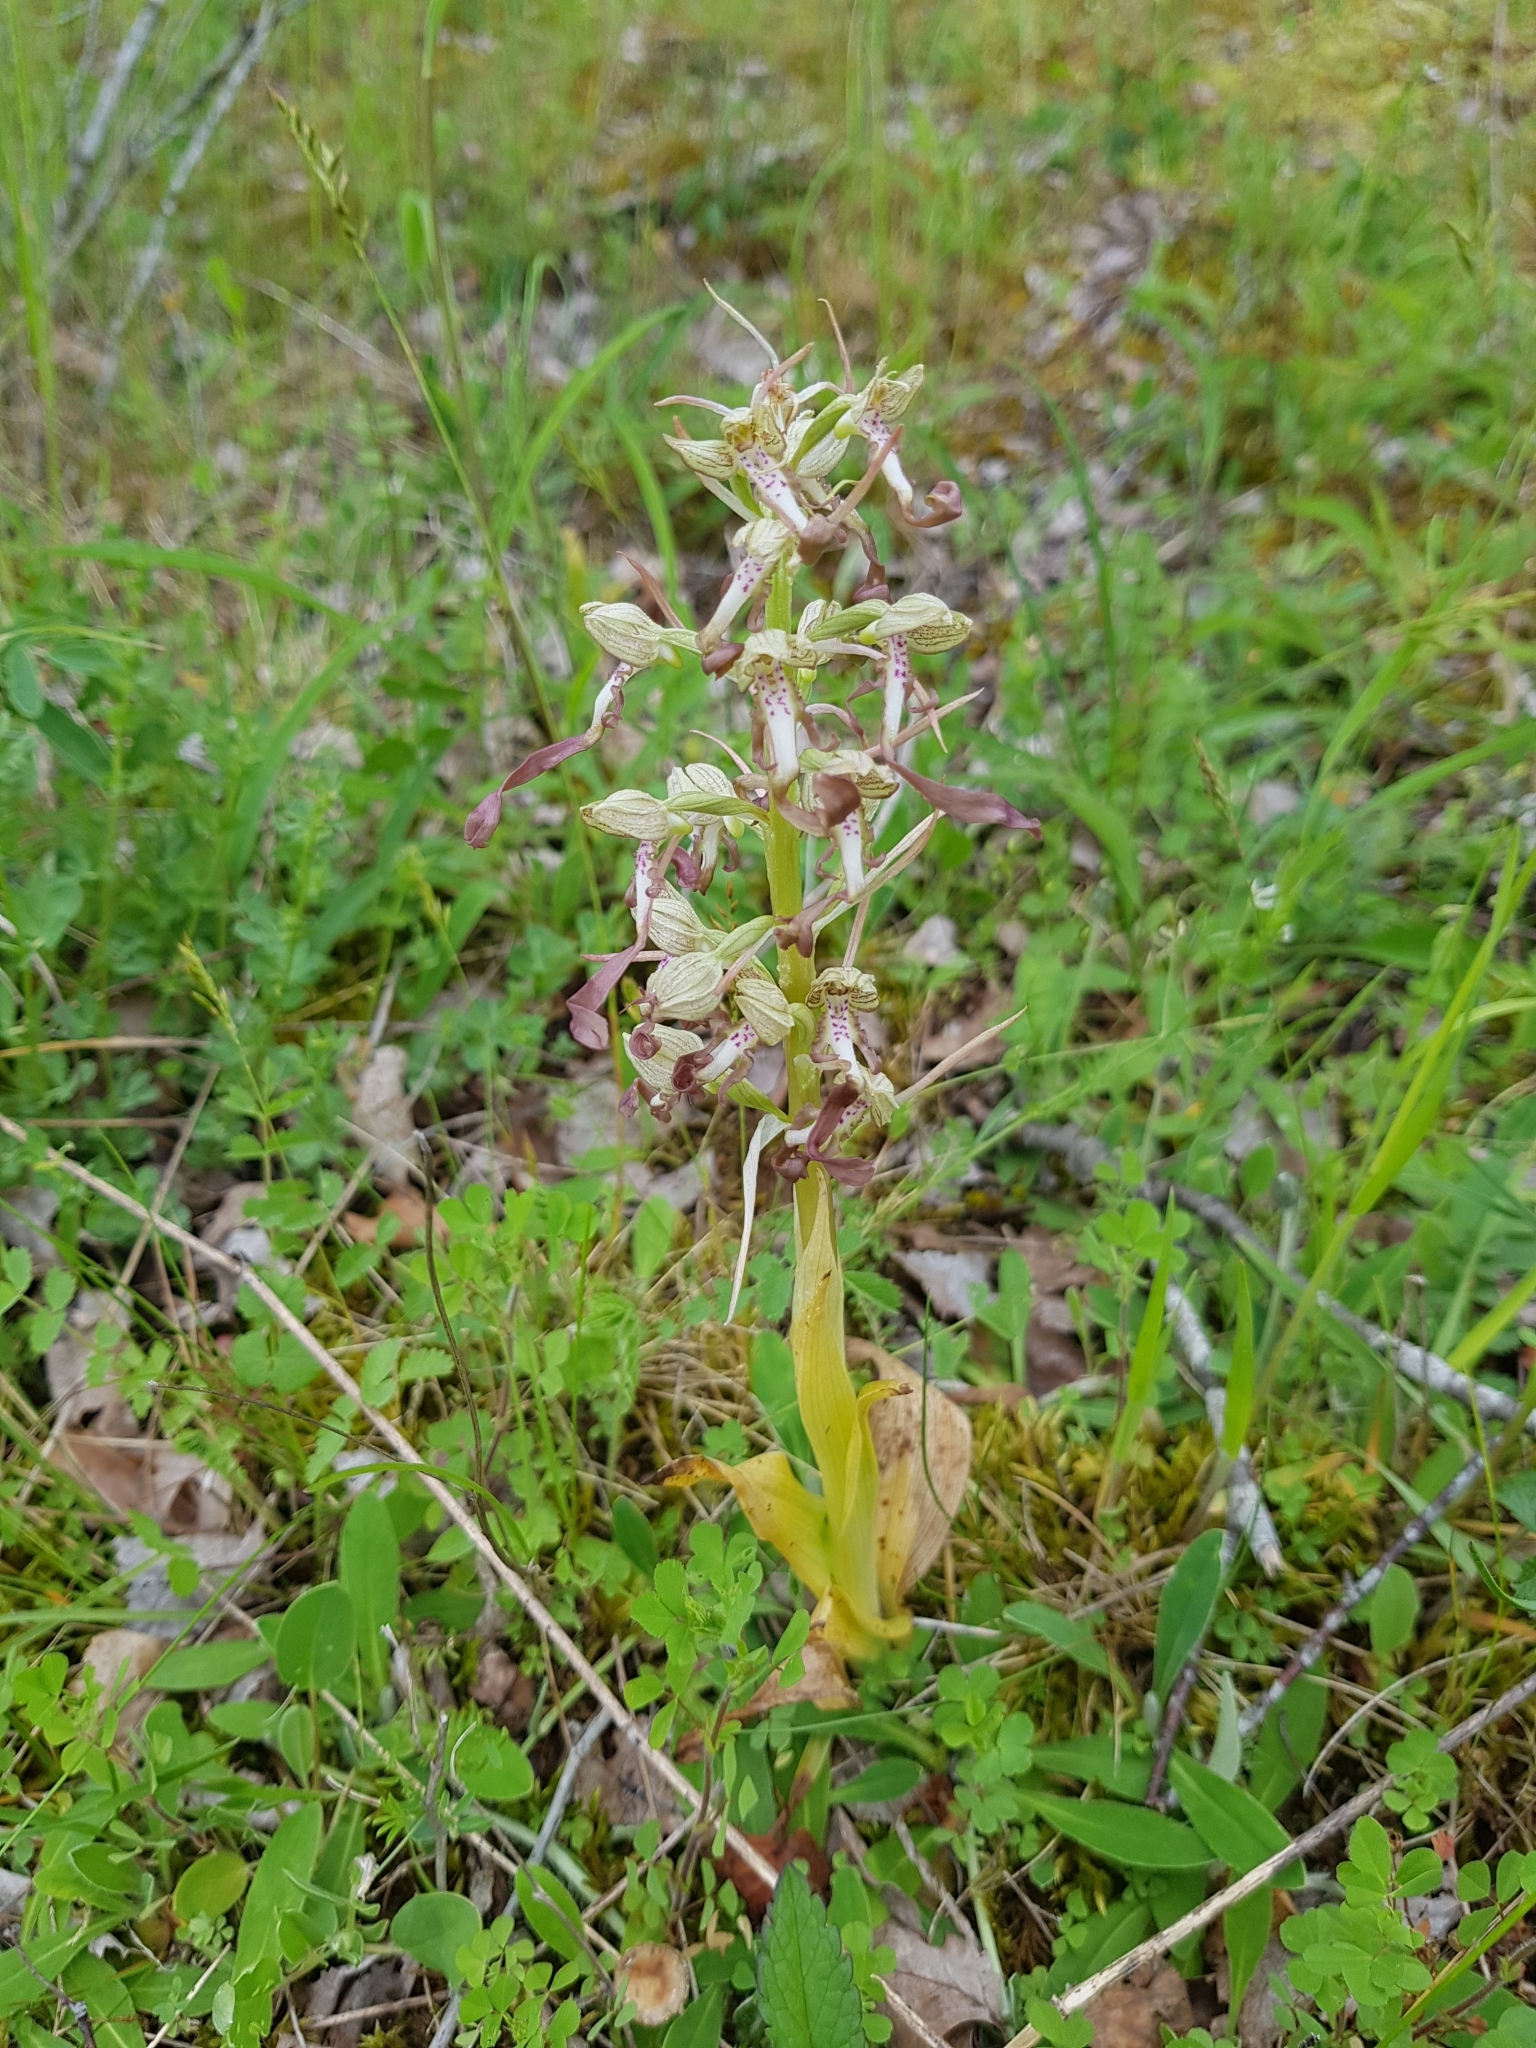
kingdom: Plantae
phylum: Tracheophyta
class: Liliopsida
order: Asparagales
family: Orchidaceae
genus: Himantoglossum
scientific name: Himantoglossum hircinum
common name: Lizard orchid
